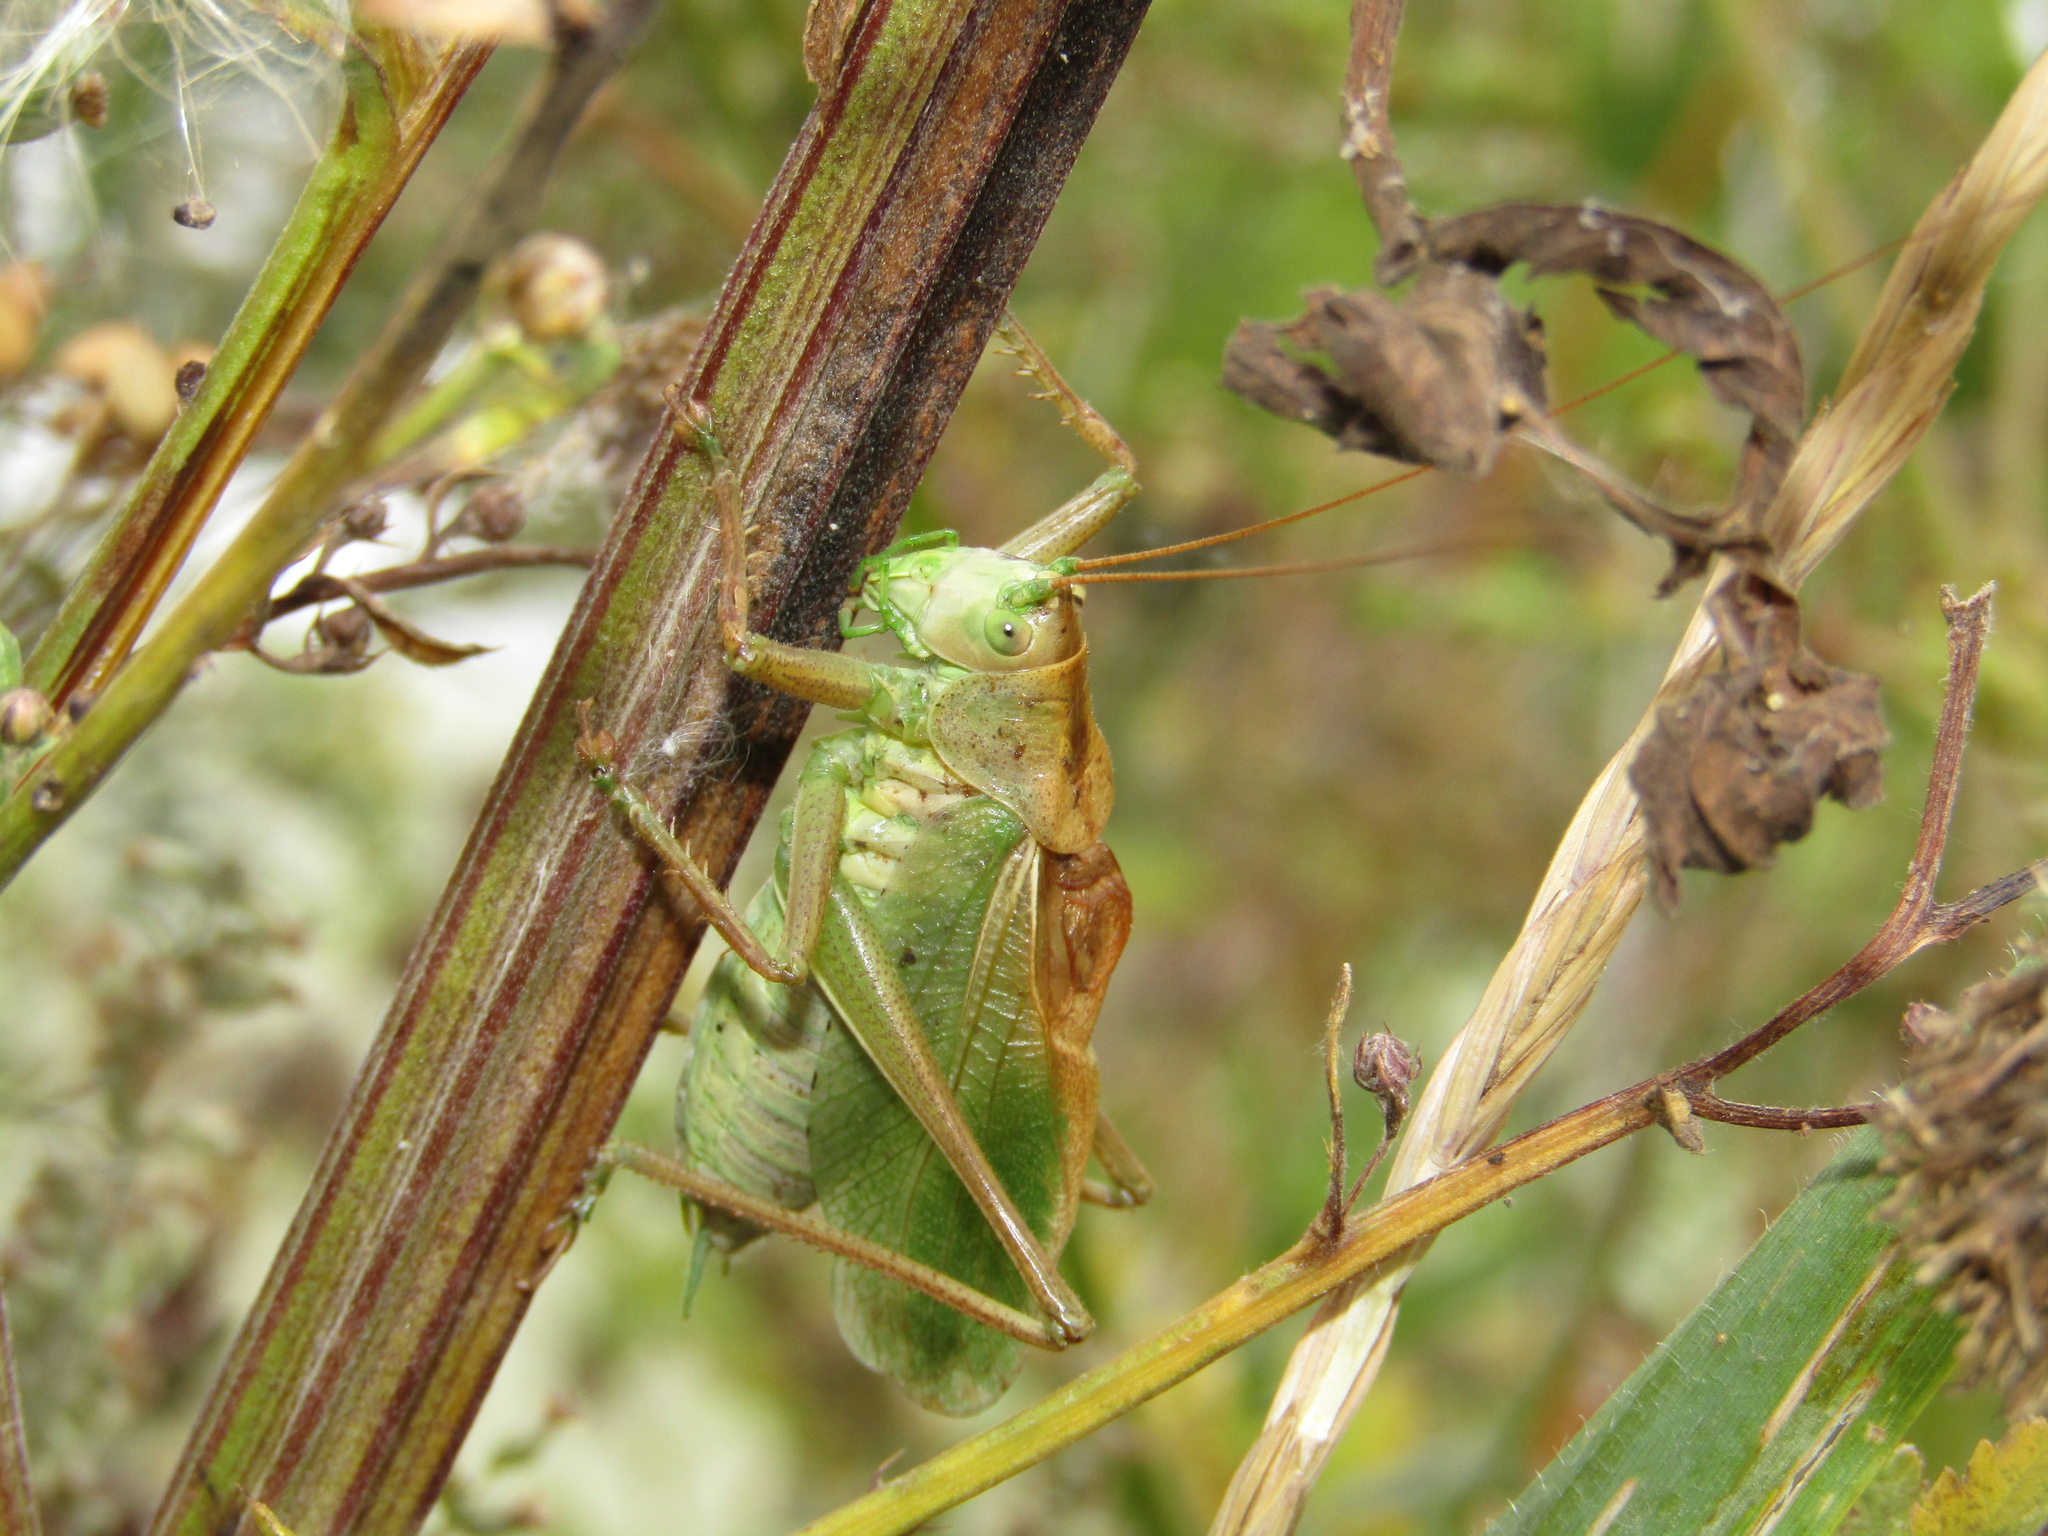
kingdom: Animalia
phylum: Arthropoda
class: Insecta
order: Orthoptera
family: Tettigoniidae
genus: Tettigonia
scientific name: Tettigonia cantans
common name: Upland green bush-cricket
